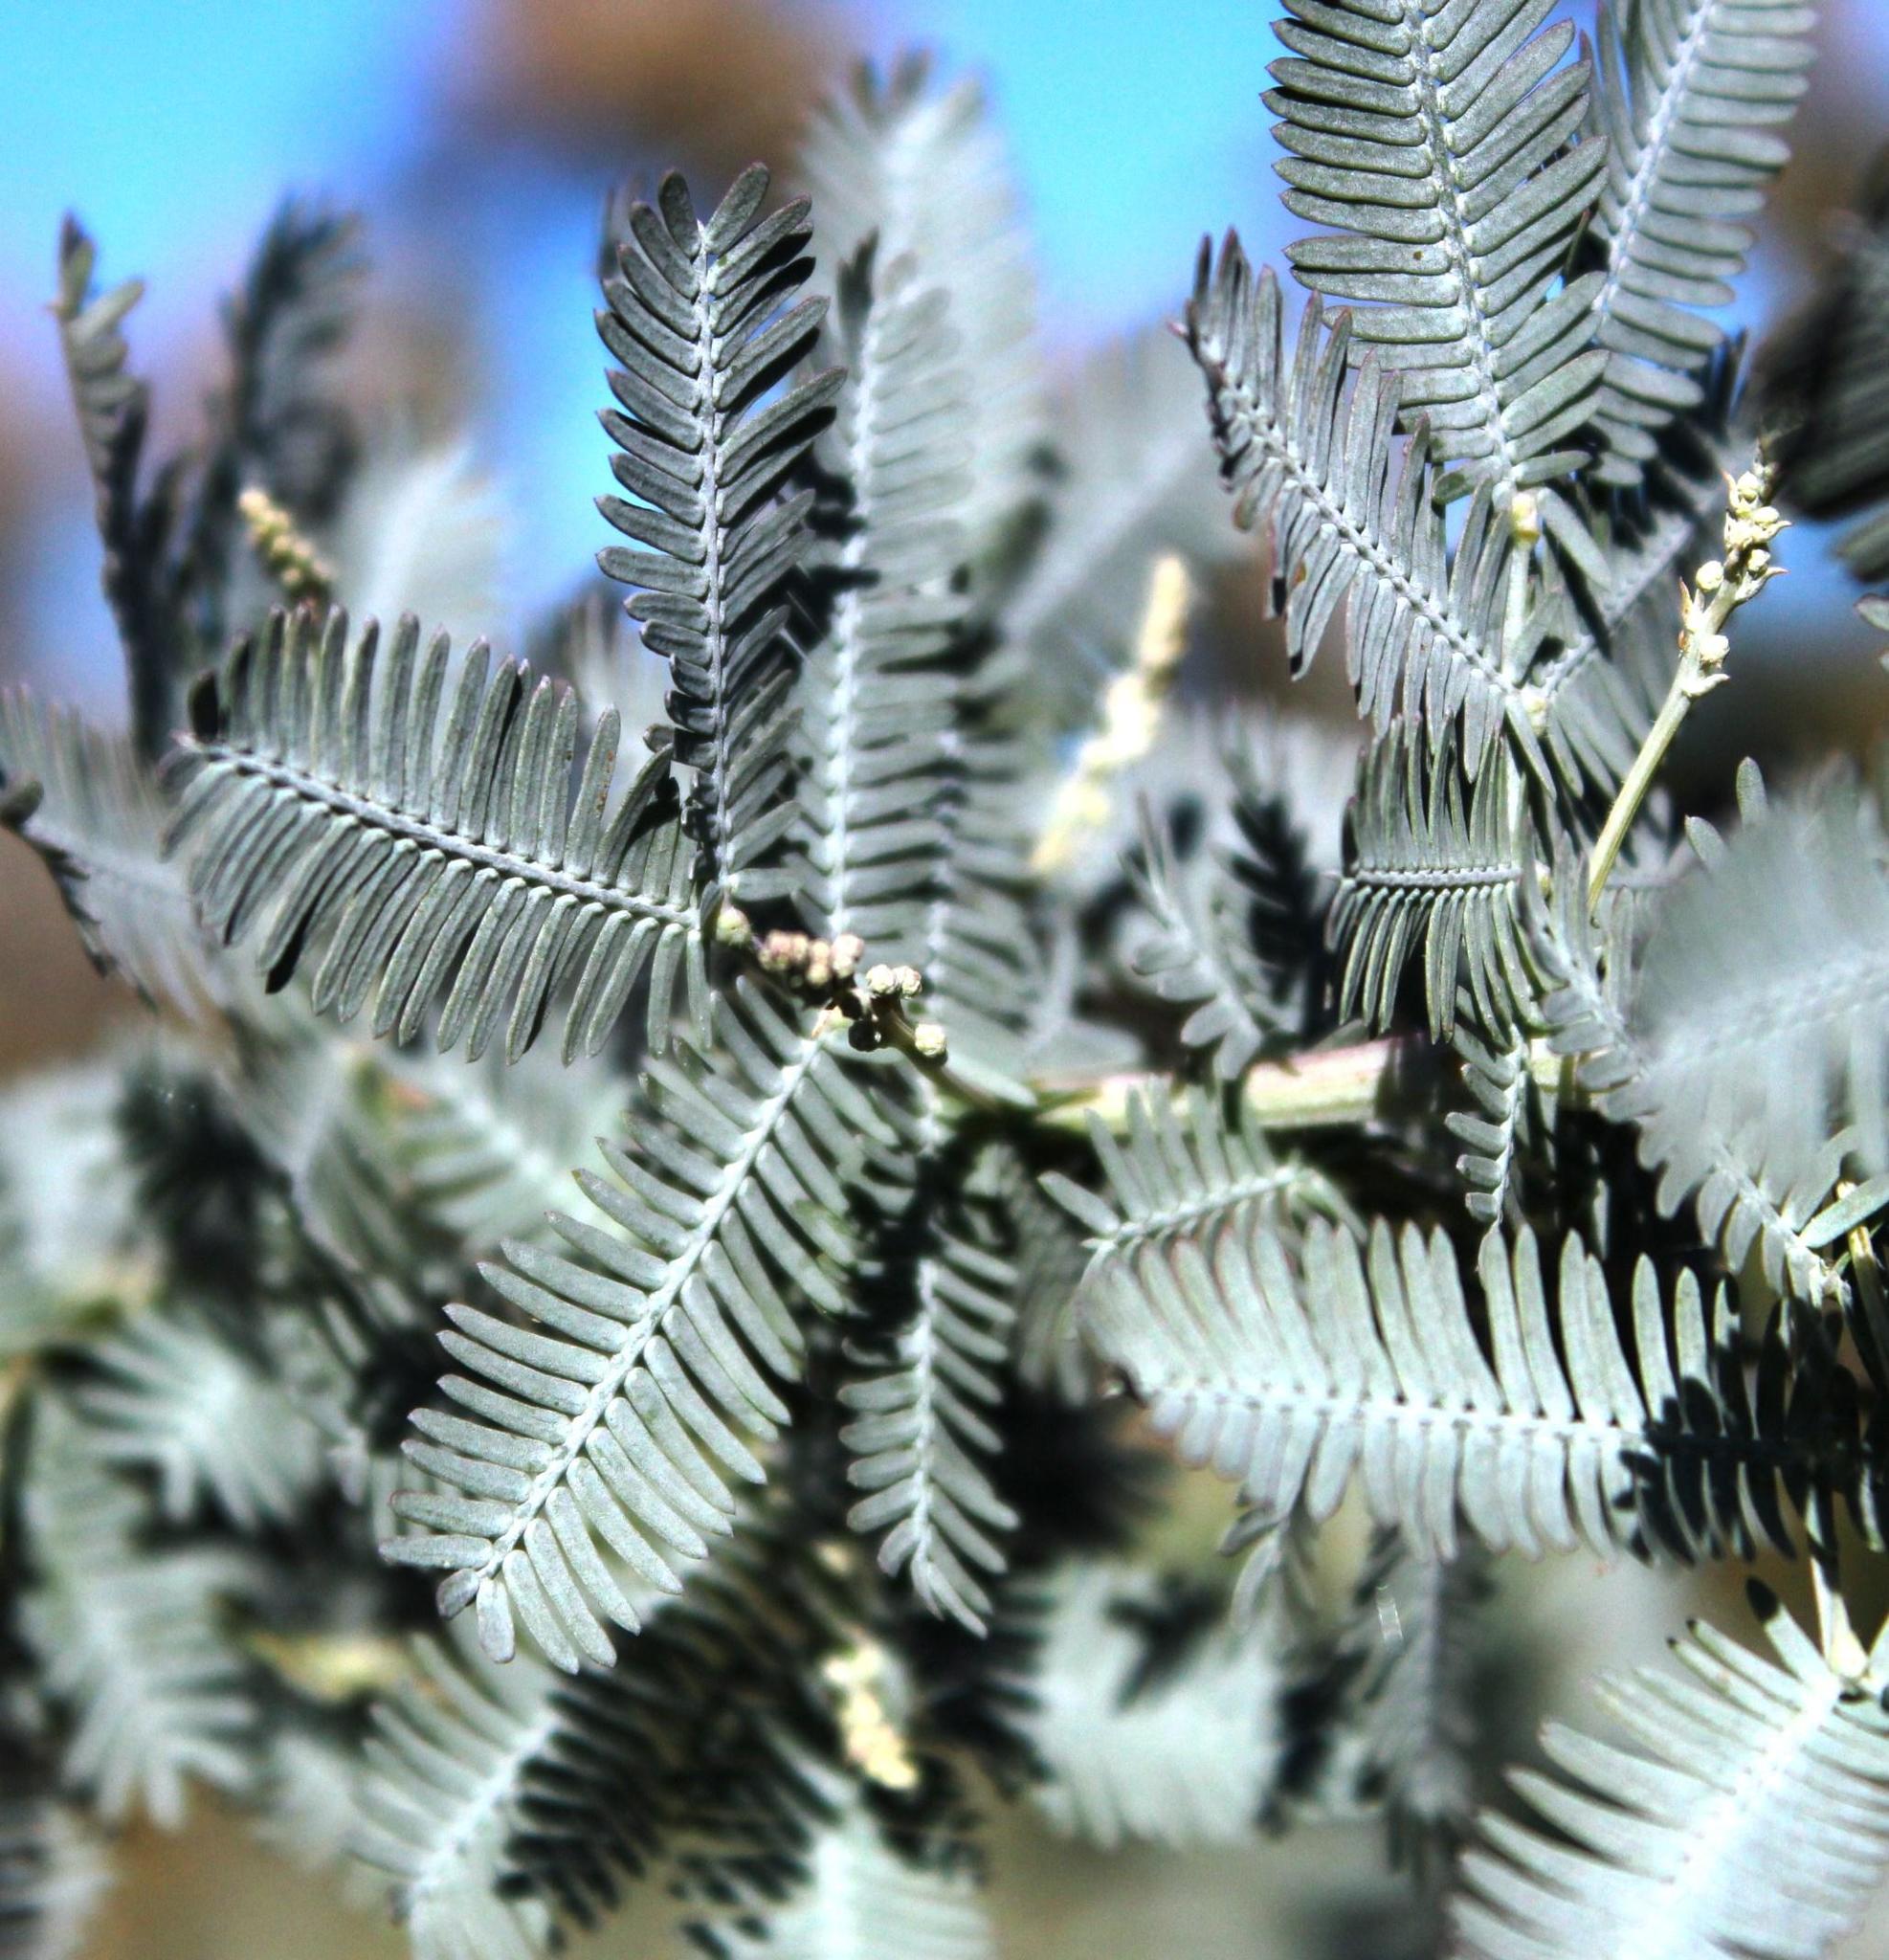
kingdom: Plantae
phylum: Tracheophyta
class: Magnoliopsida
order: Fabales
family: Fabaceae
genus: Acacia
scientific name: Acacia baileyana
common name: Cootamundra wattle
